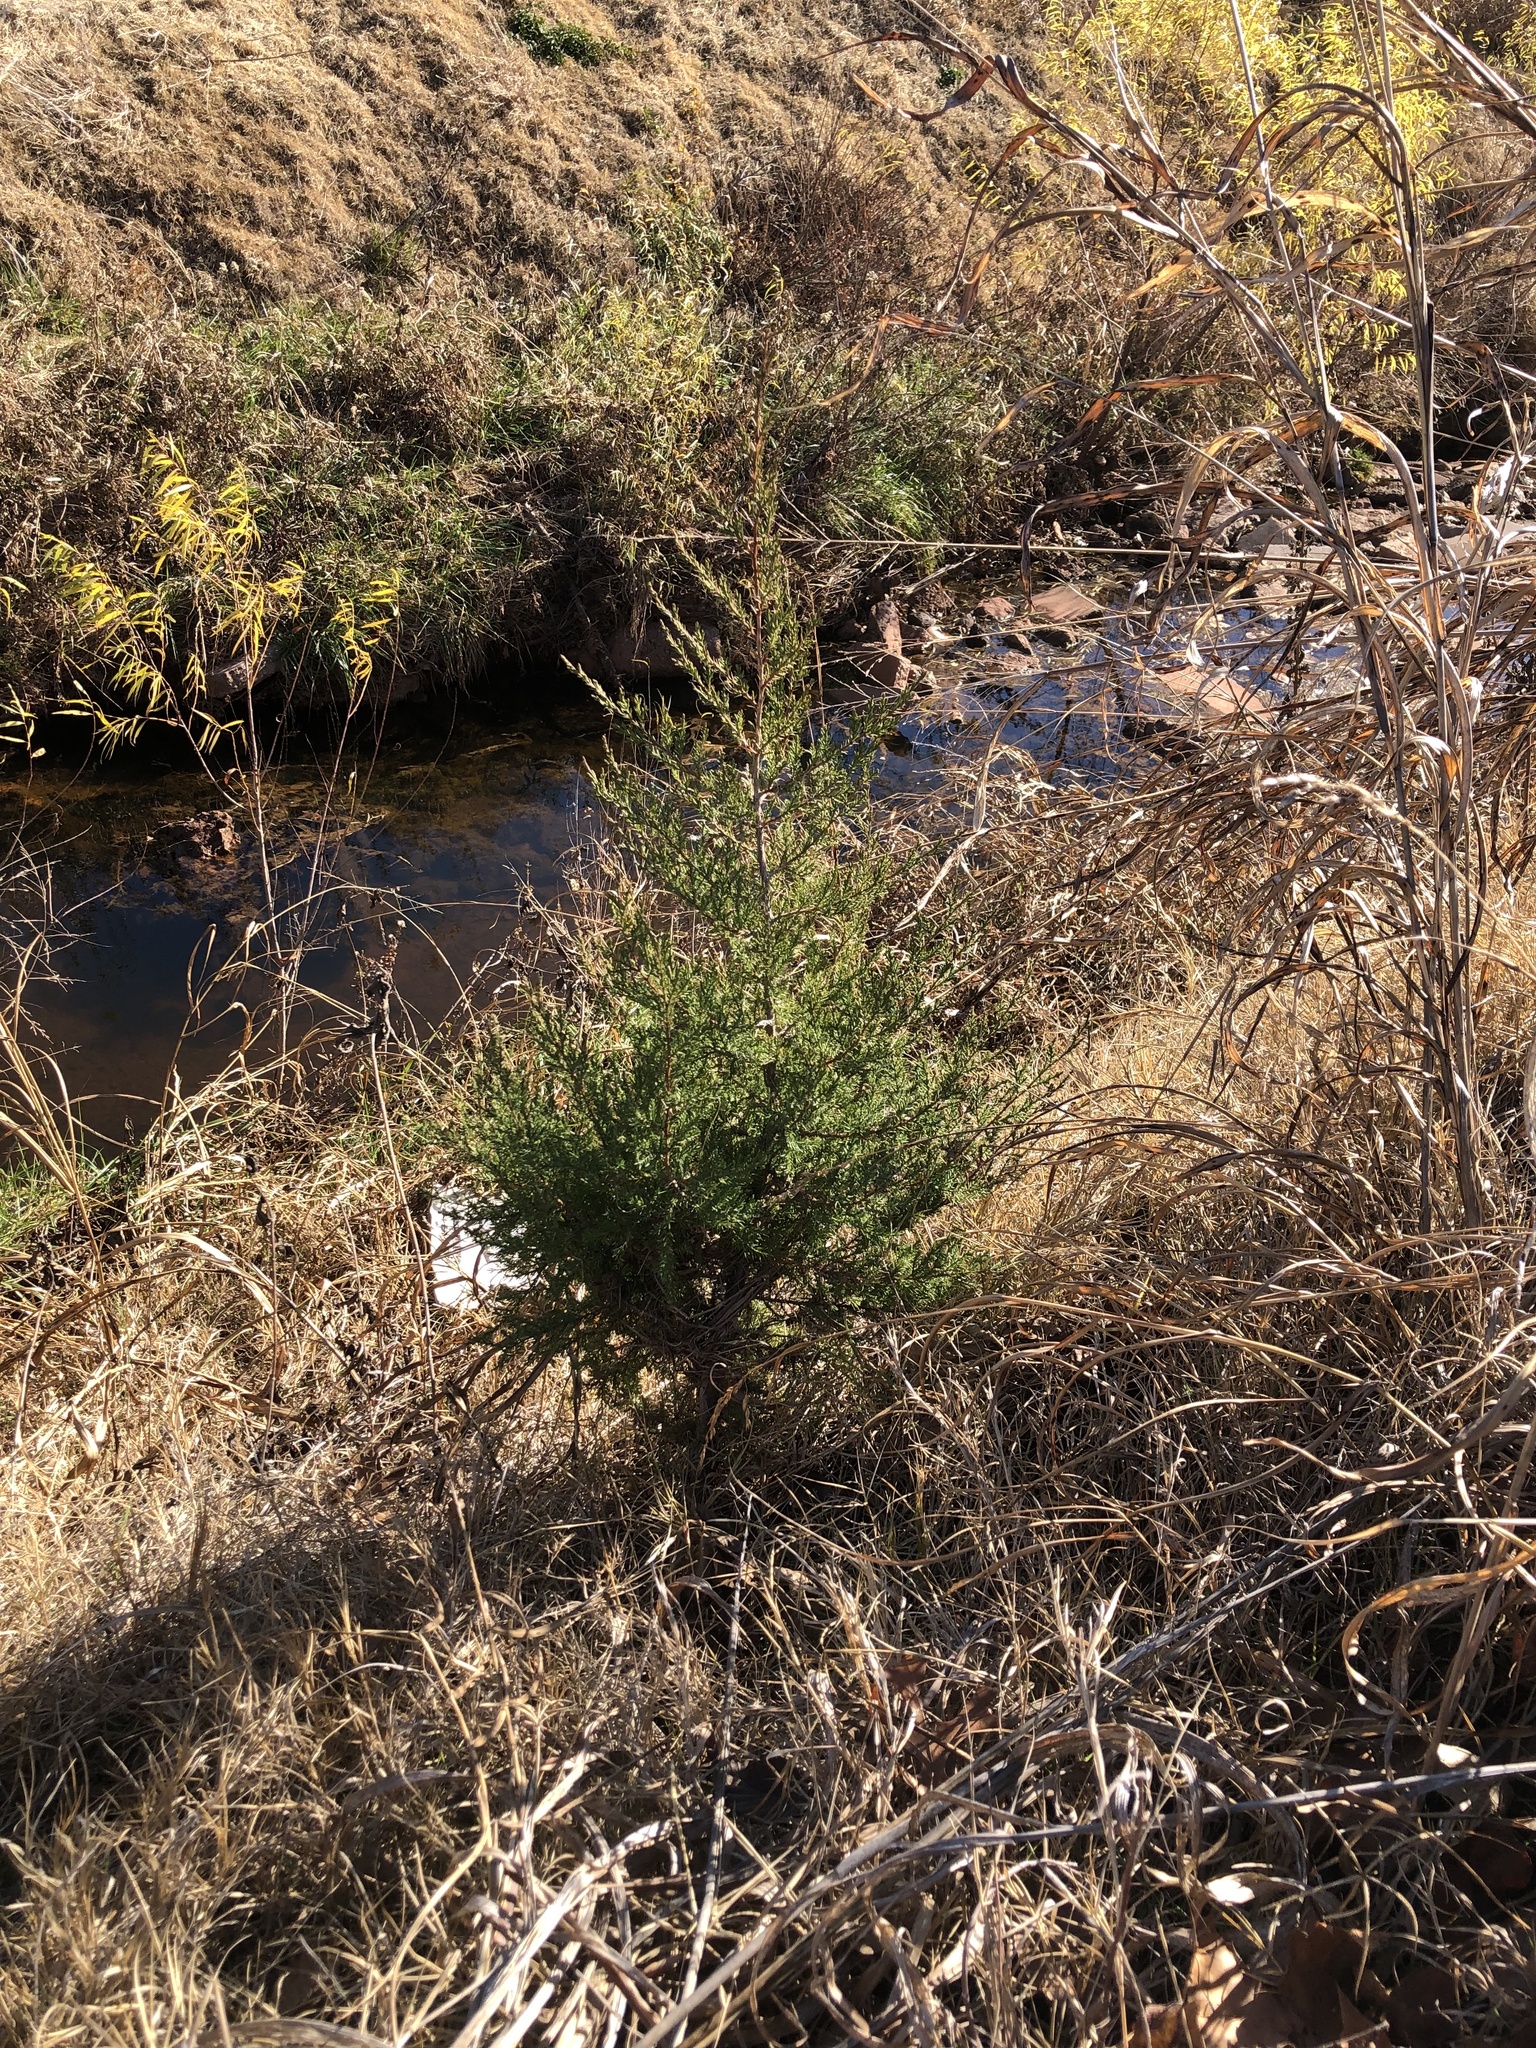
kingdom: Plantae
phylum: Tracheophyta
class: Pinopsida
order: Pinales
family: Cupressaceae
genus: Juniperus
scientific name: Juniperus virginiana
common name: Red juniper
